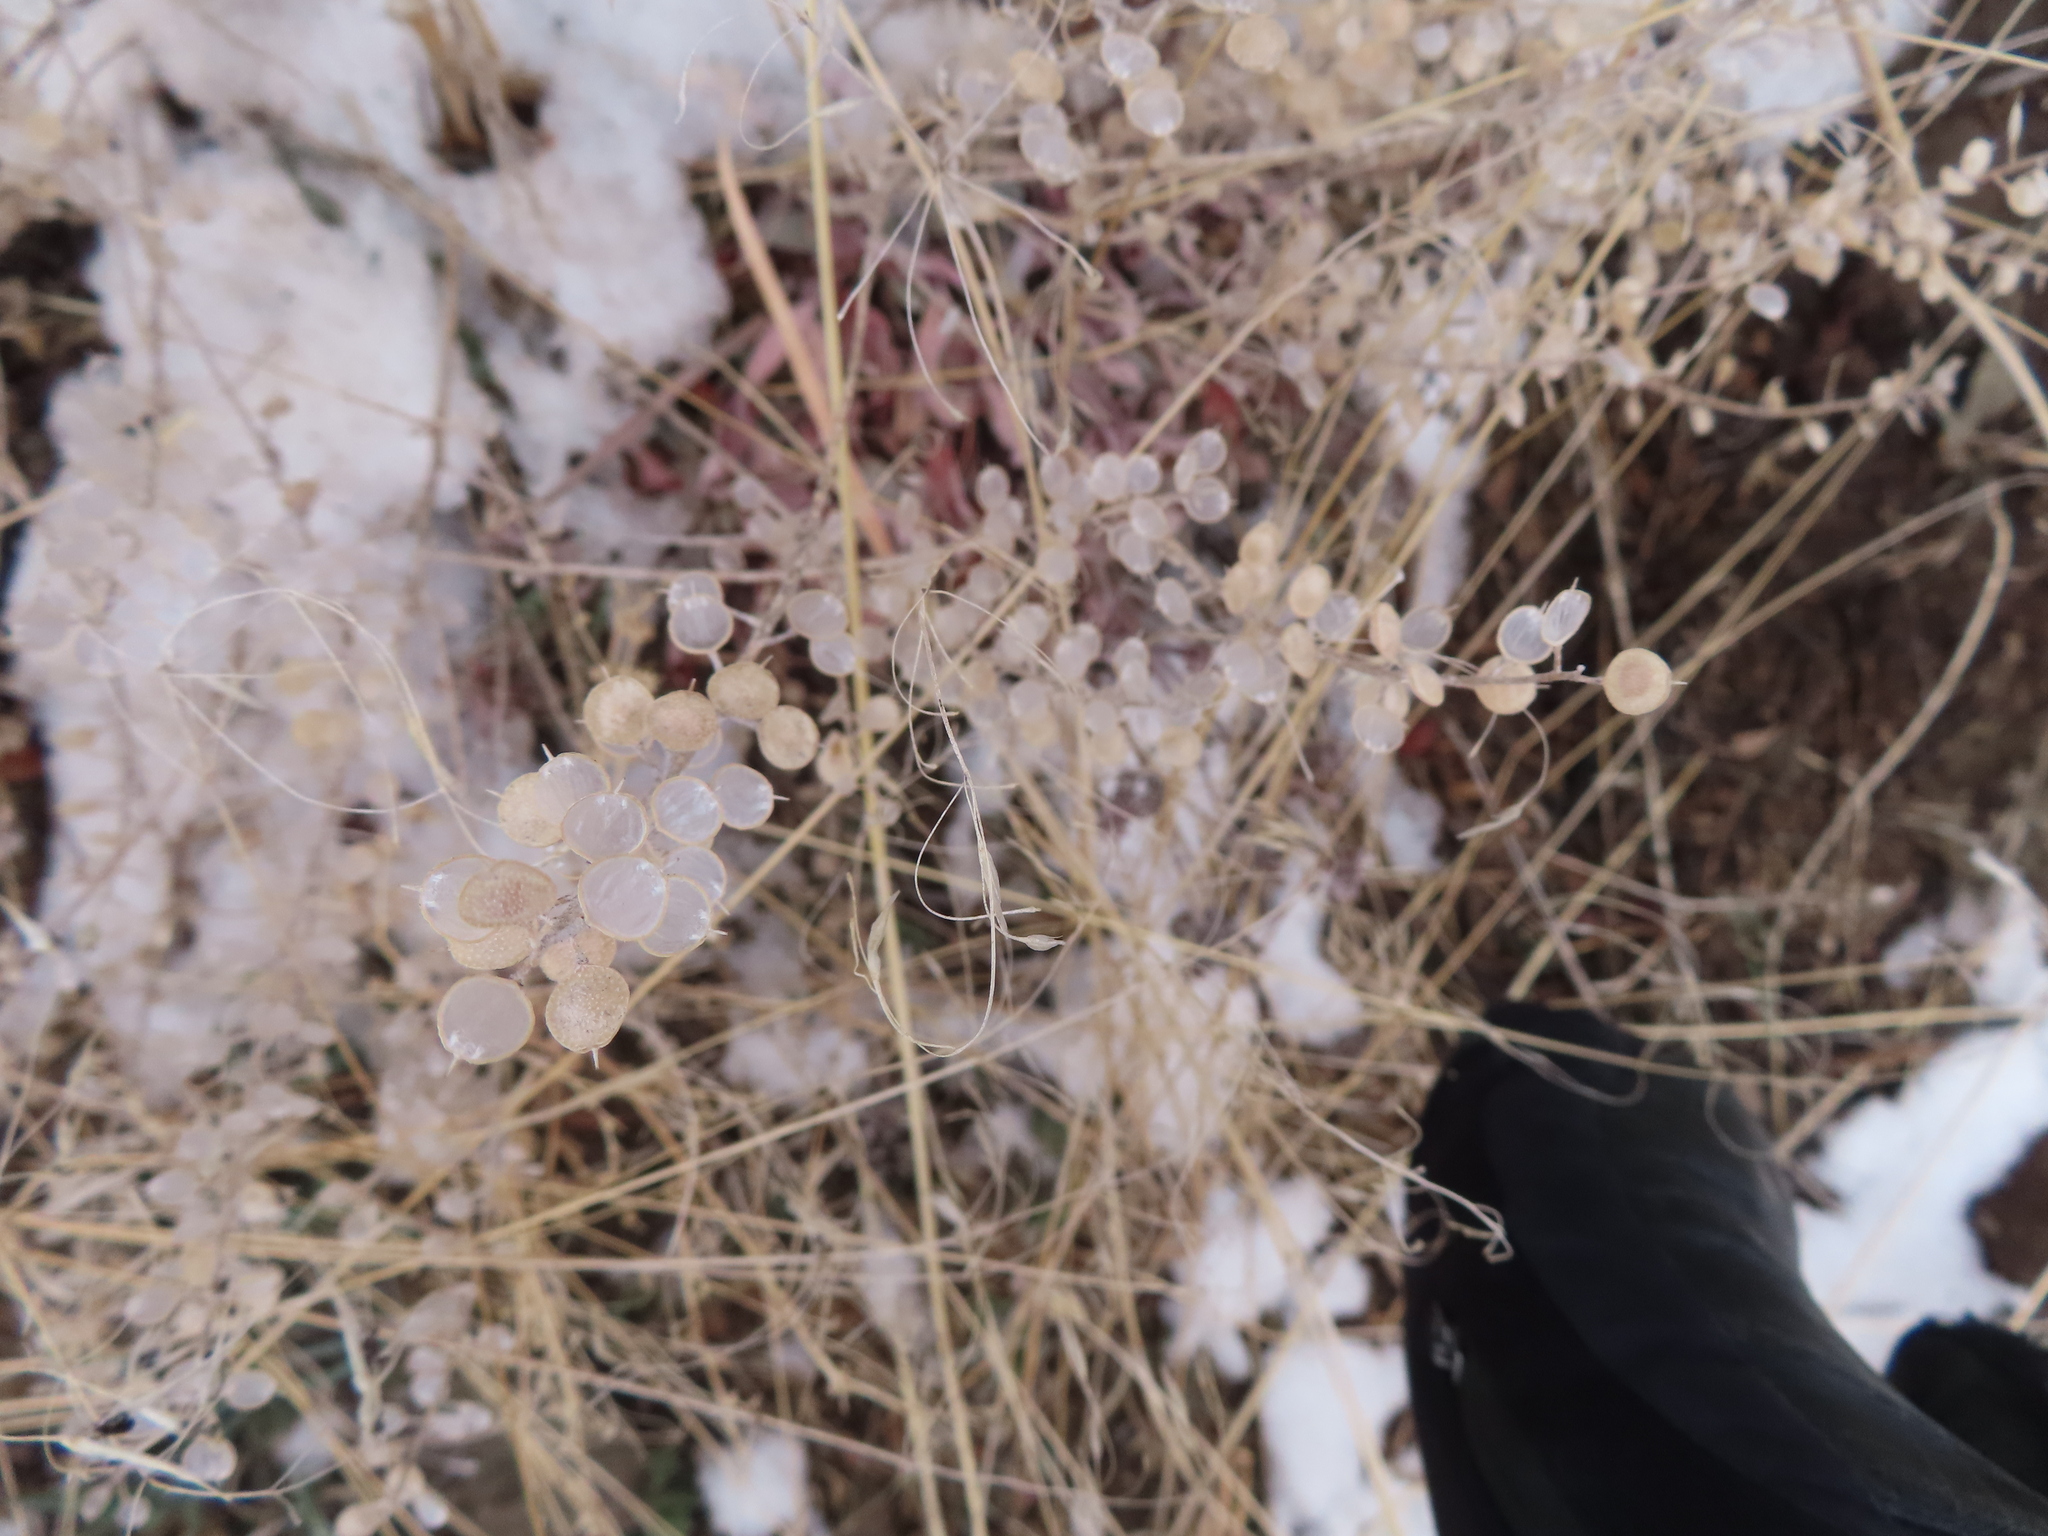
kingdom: Plantae
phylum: Tracheophyta
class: Magnoliopsida
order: Brassicales
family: Brassicaceae
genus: Alyssum
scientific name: Alyssum simplex
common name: Alyssum
